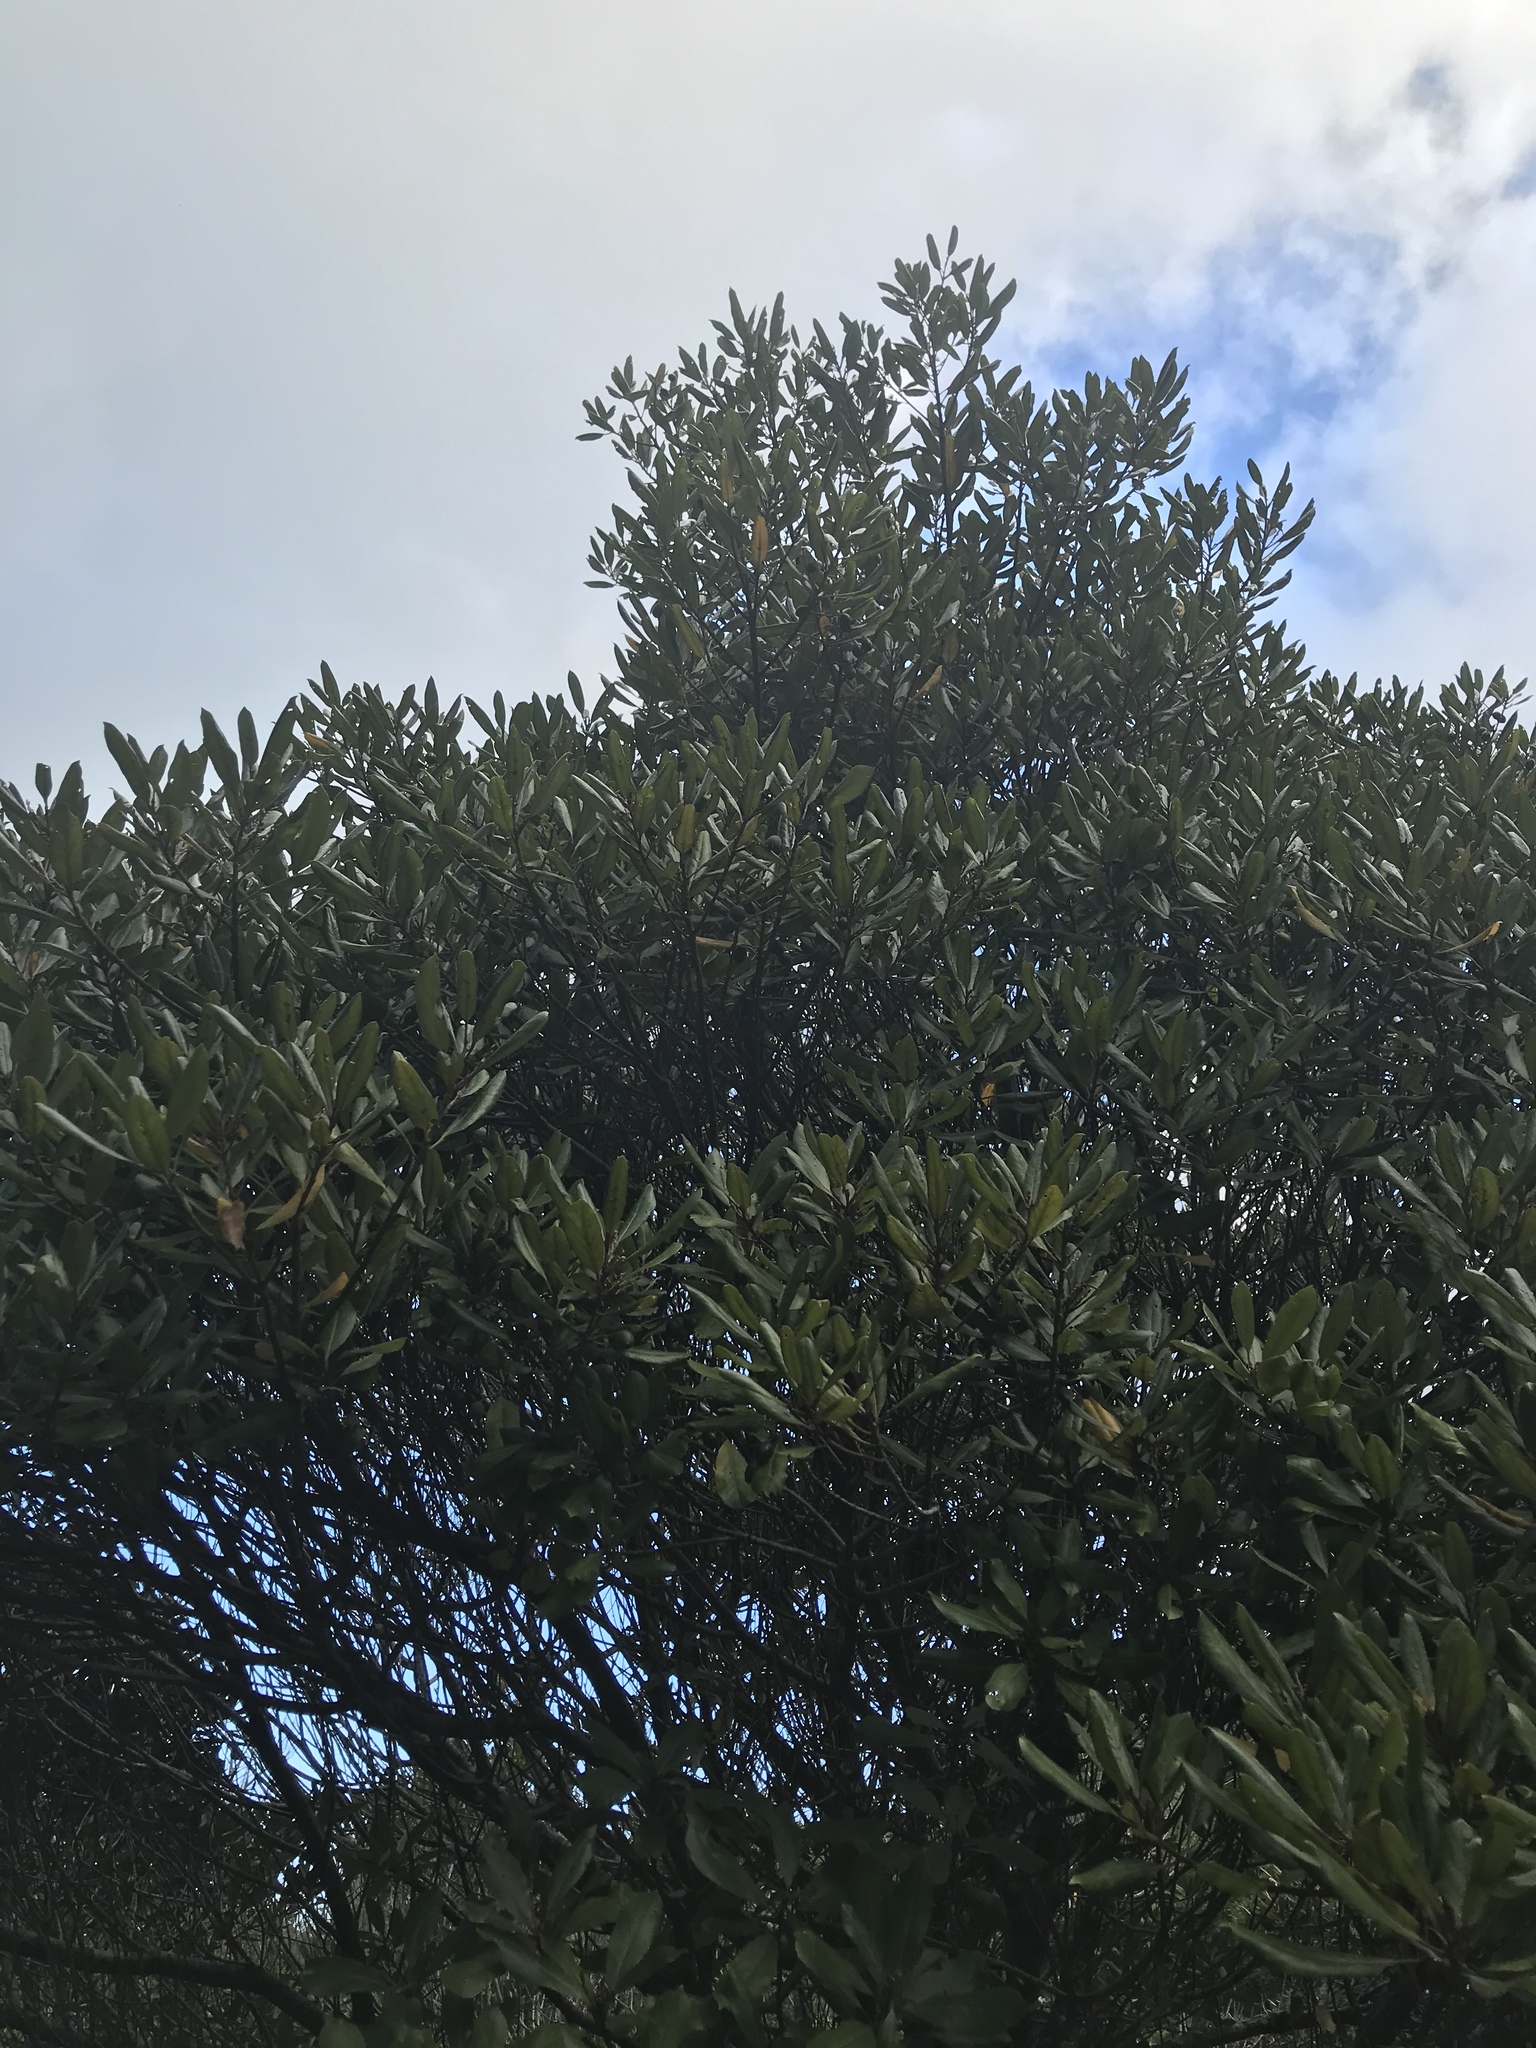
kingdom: Plantae
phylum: Tracheophyta
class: Magnoliopsida
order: Oxalidales
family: Elaeocarpaceae
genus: Elaeocarpus
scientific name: Elaeocarpus dentatus
